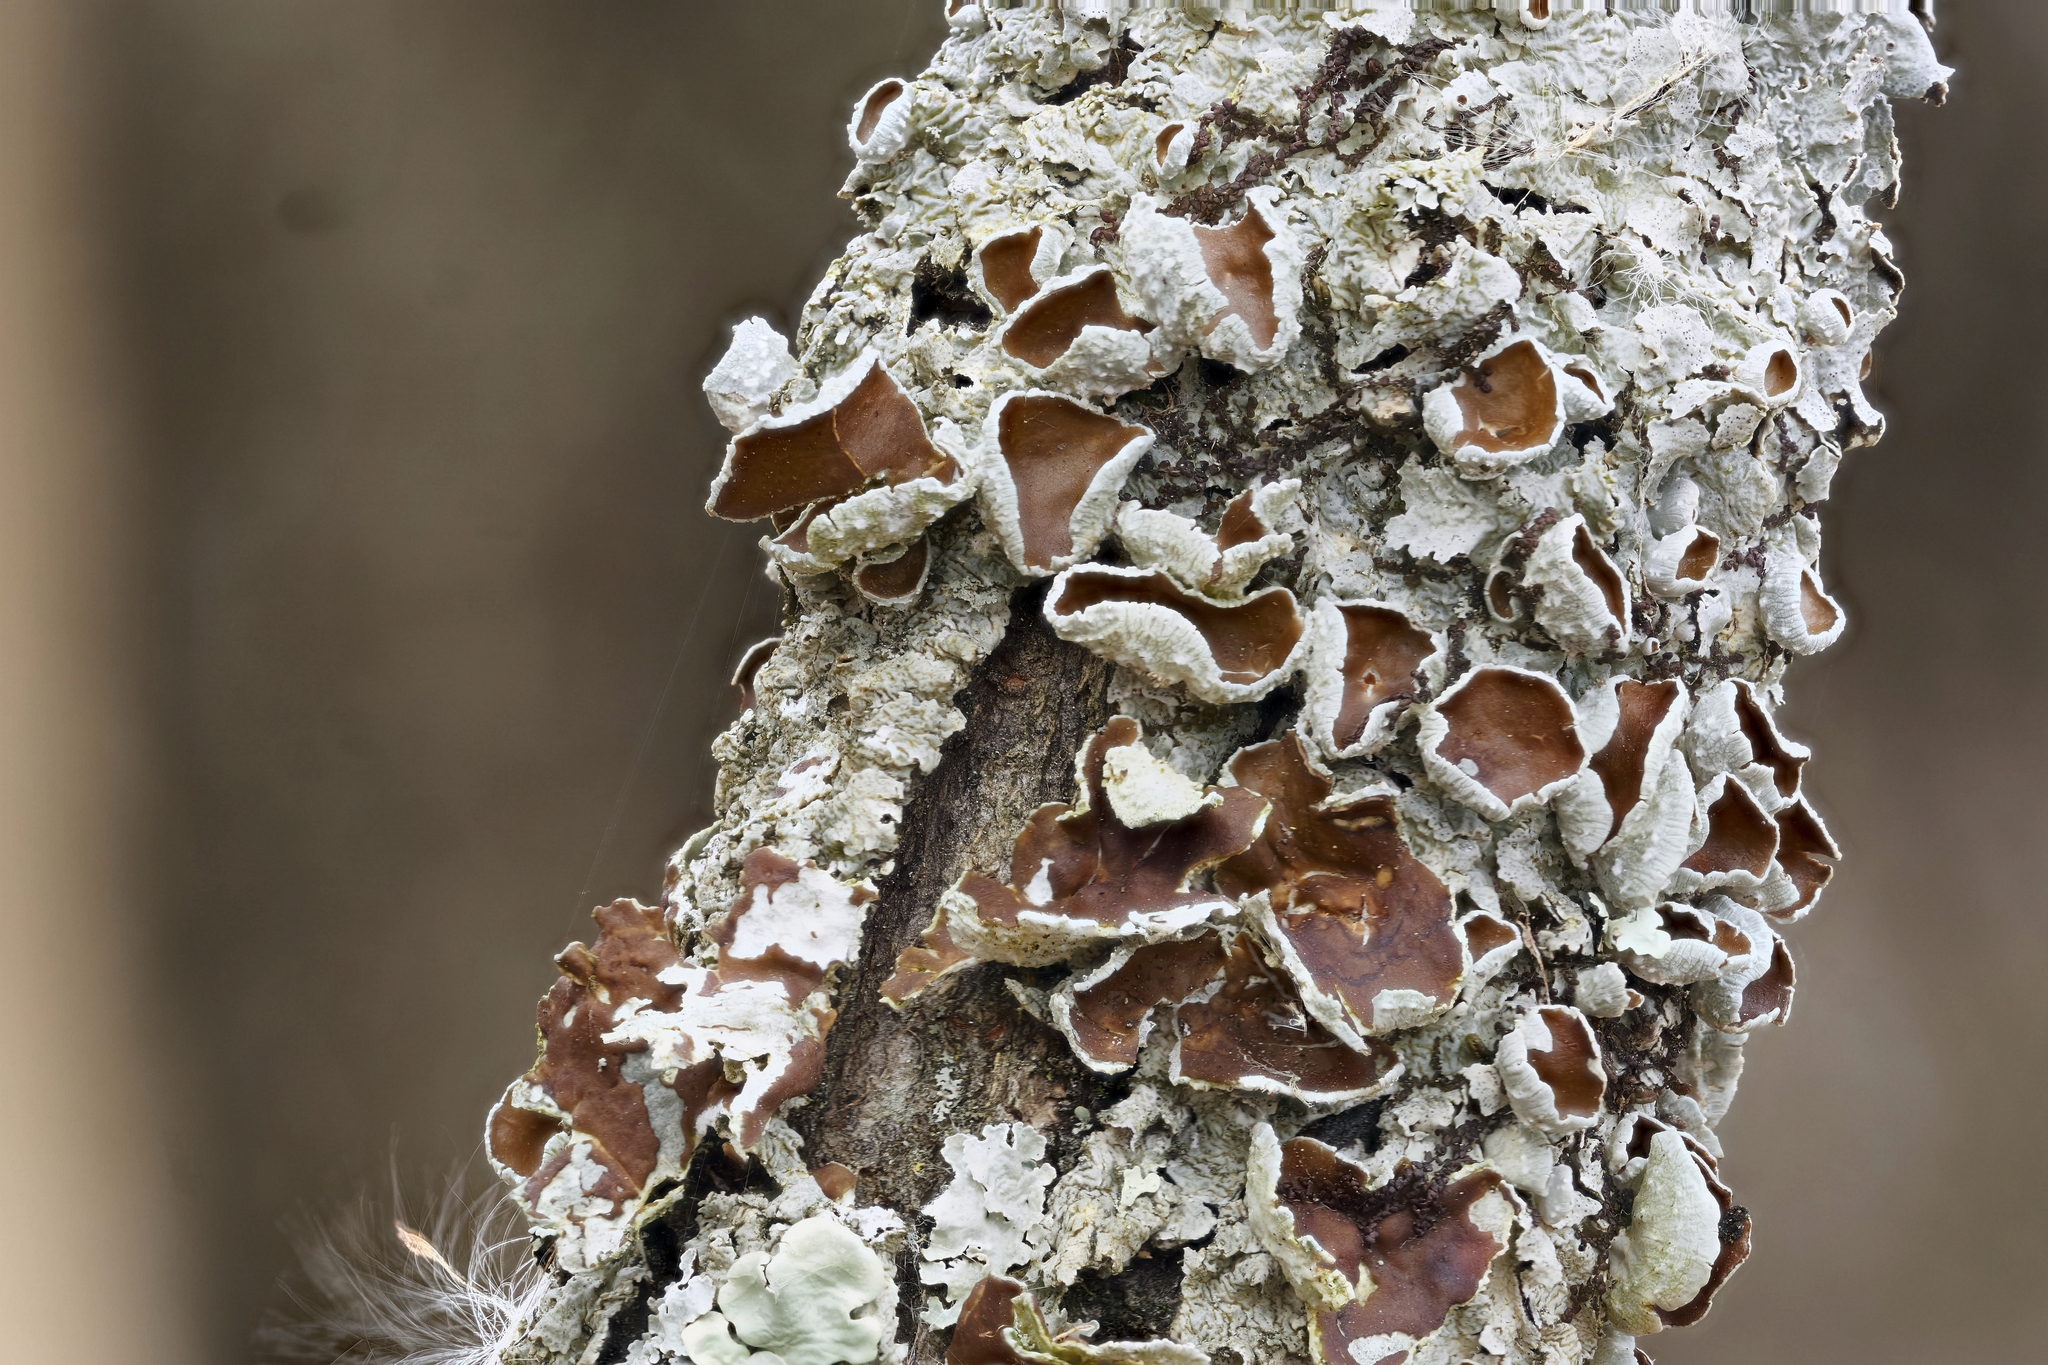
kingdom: Fungi
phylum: Ascomycota
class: Lecanoromycetes
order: Lecanorales
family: Parmeliaceae
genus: Imshaugia
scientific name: Imshaugia placorodia
